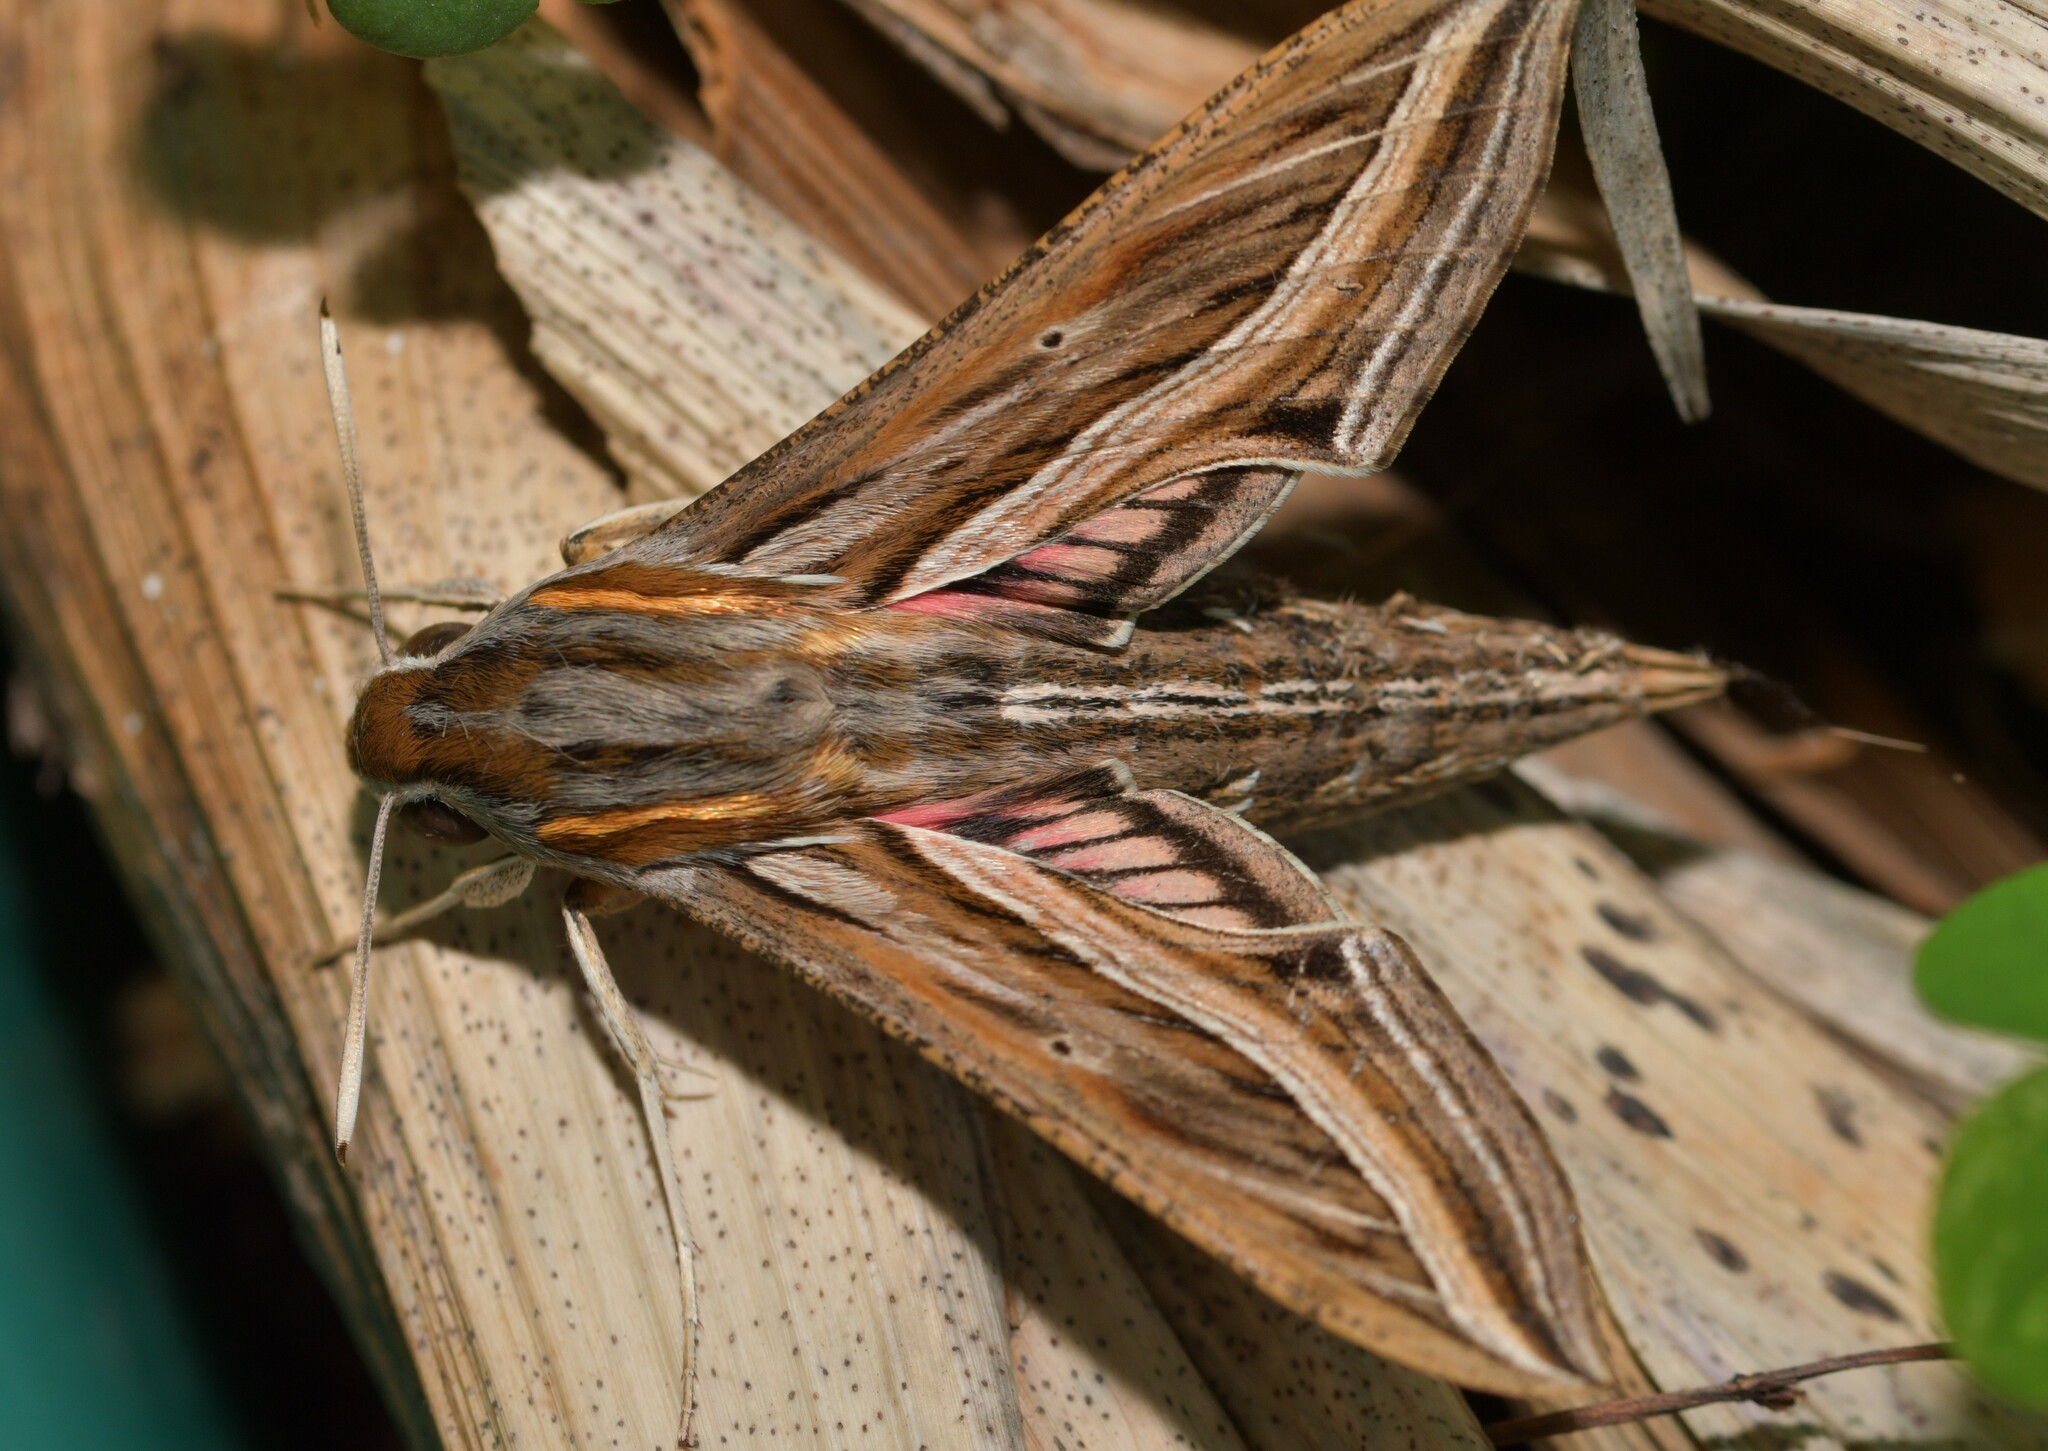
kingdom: Animalia
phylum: Arthropoda
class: Insecta
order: Lepidoptera
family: Sphingidae
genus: Hippotion
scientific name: Hippotion celerio
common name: Silver-striped hawk-moth
